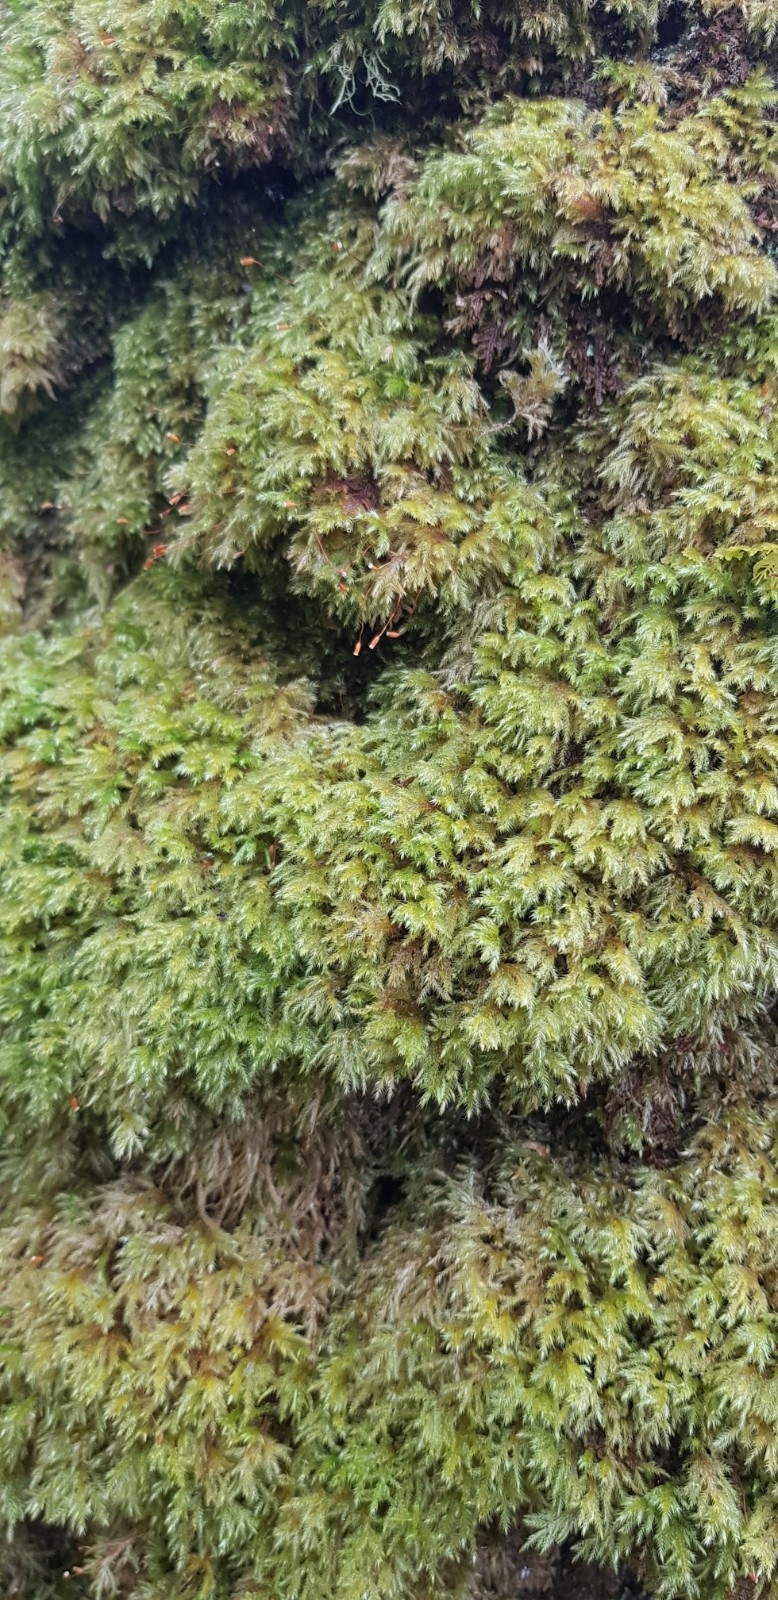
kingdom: Plantae
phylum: Bryophyta
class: Bryopsida
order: Hypnales
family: Lembophyllaceae
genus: Pseudisothecium
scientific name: Pseudisothecium myosuroides
